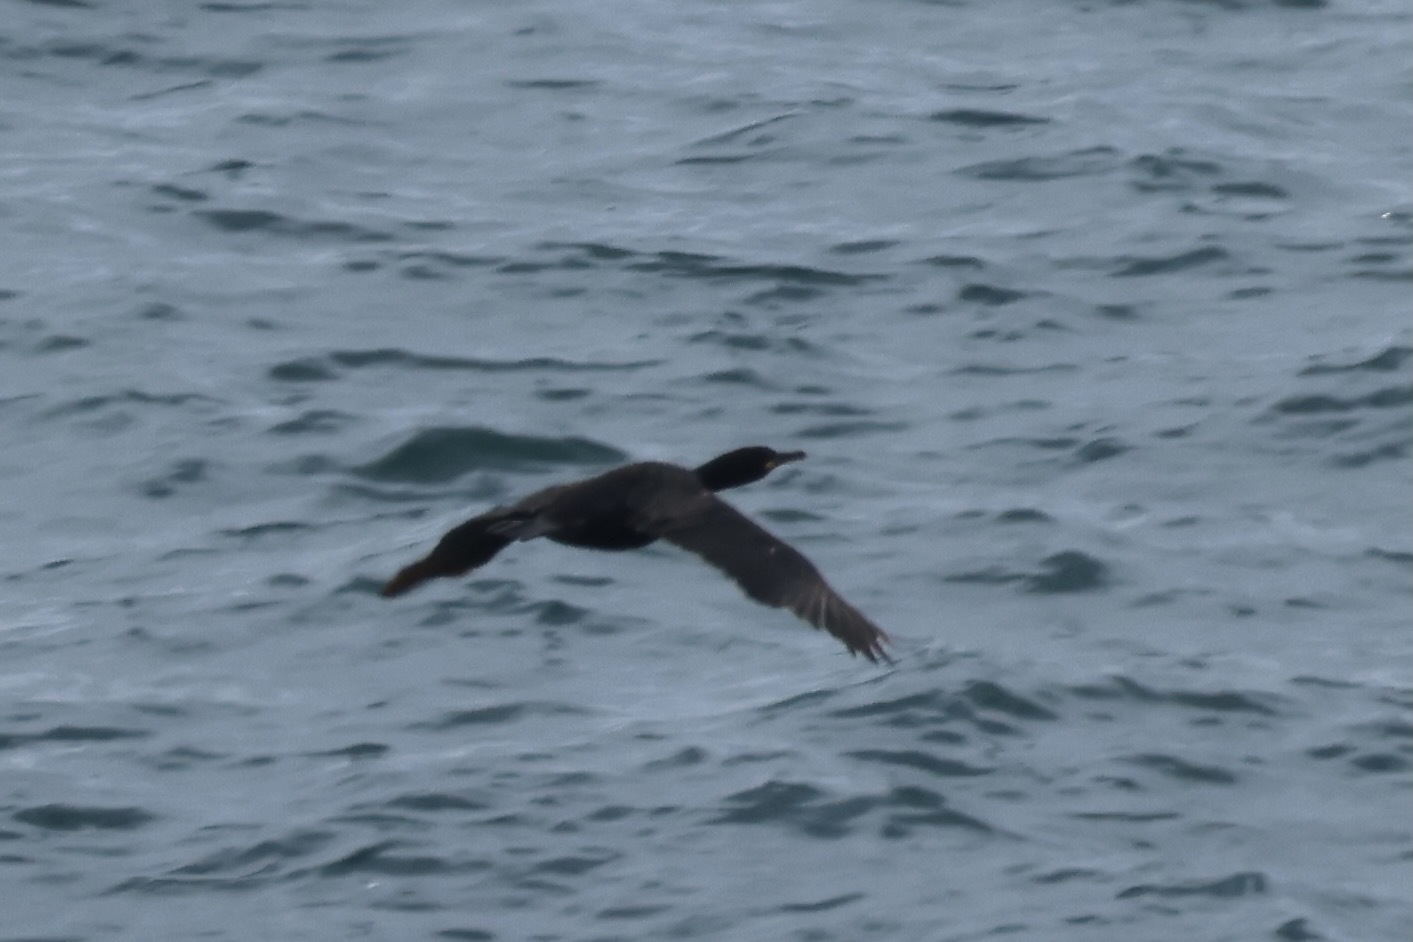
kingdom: Animalia
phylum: Chordata
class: Aves
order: Suliformes
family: Phalacrocoracidae
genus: Phalacrocorax
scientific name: Phalacrocorax aristotelis
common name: European shag
